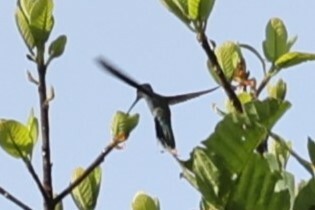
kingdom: Animalia
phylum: Chordata
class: Aves
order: Apodiformes
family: Trochilidae
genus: Campylopterus
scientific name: Campylopterus largipennis
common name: Gray-breasted sabrewing
